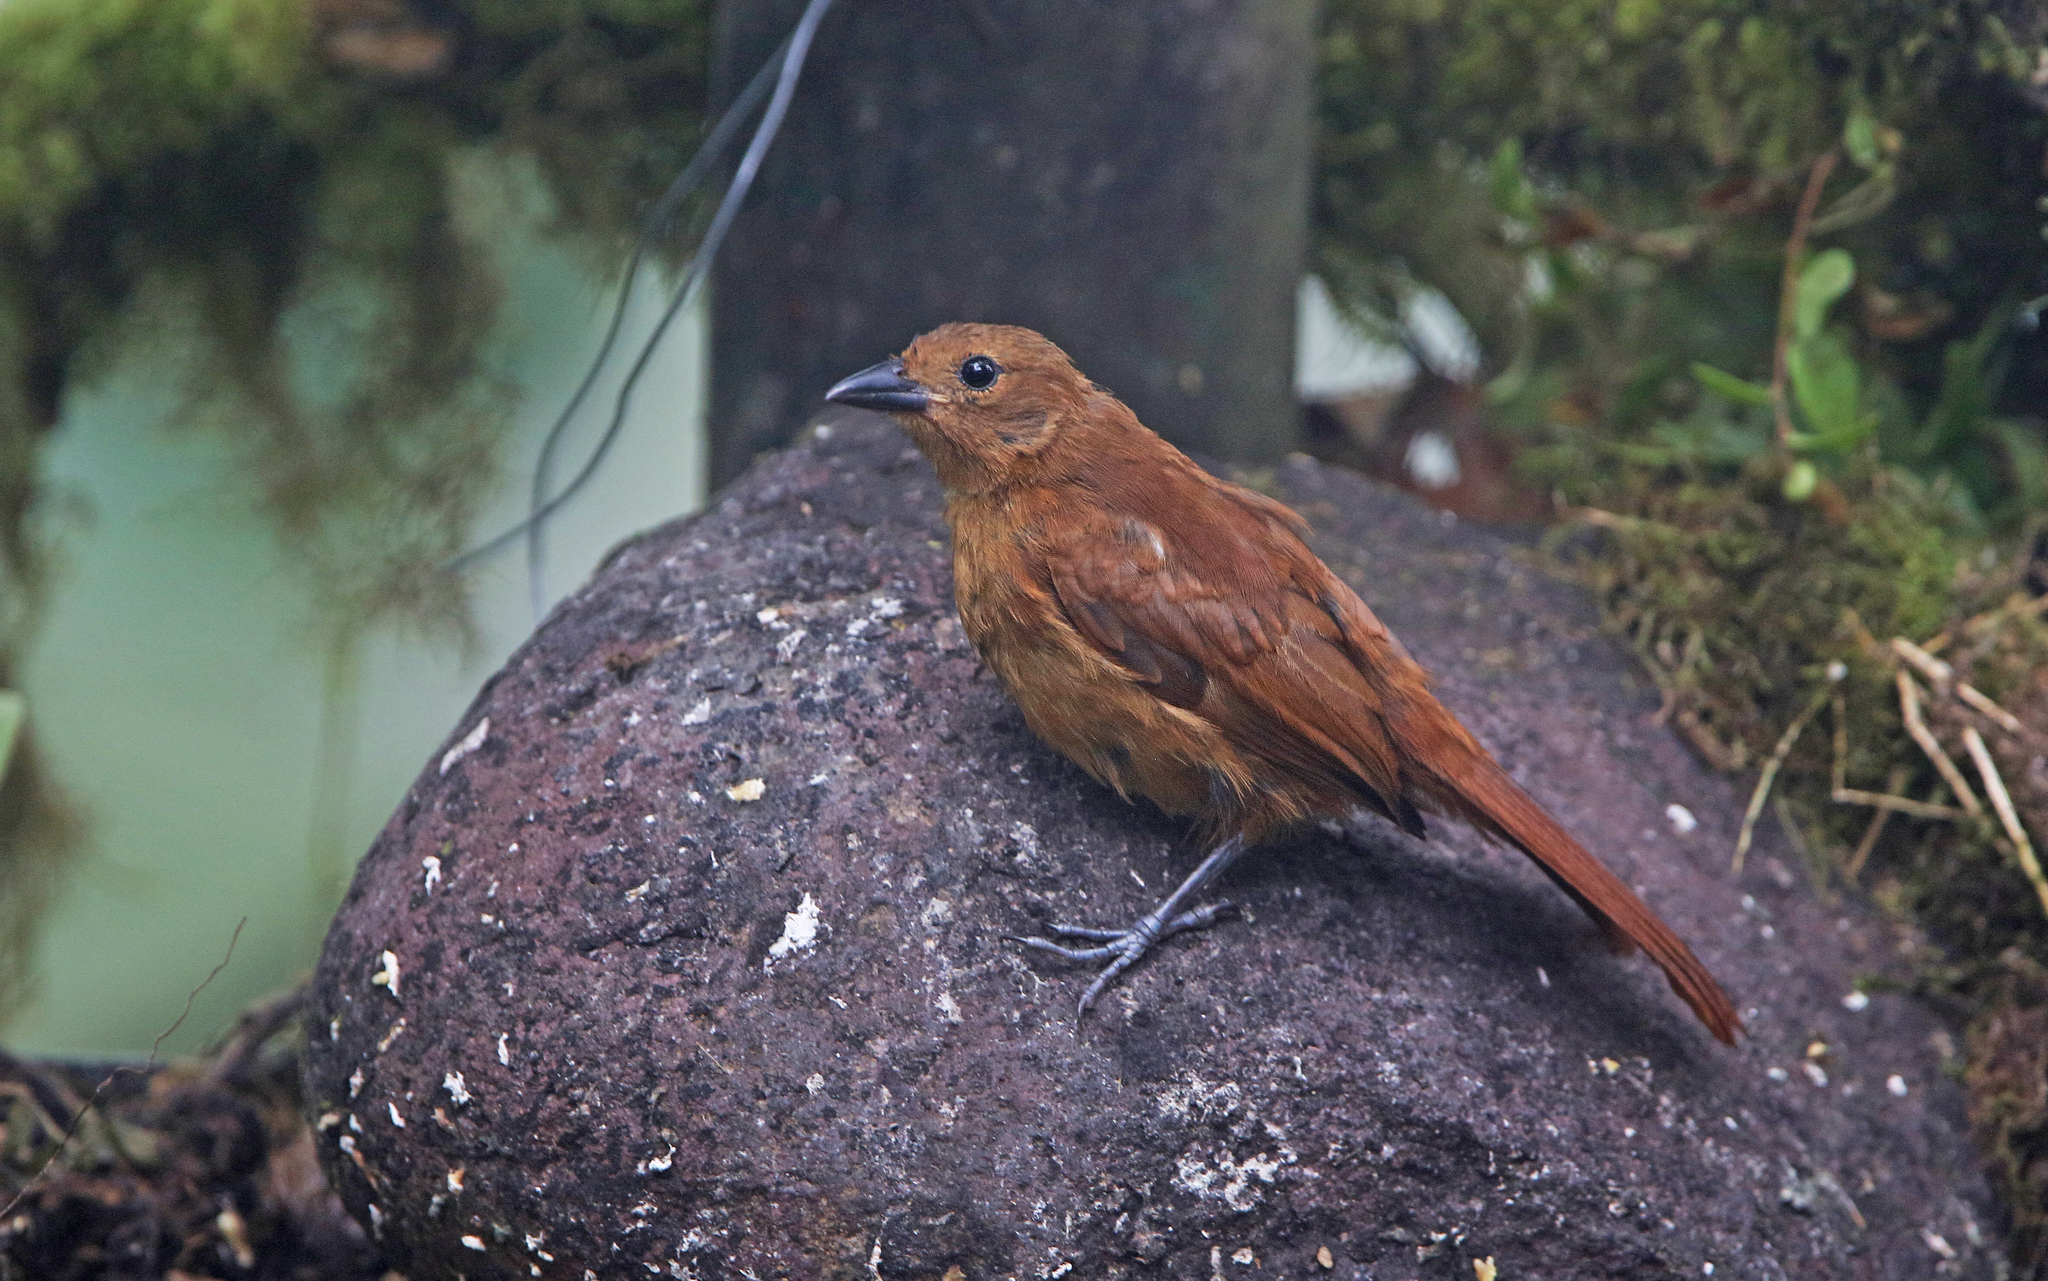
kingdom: Animalia
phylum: Chordata
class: Aves
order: Passeriformes
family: Thraupidae
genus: Tachyphonus
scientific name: Tachyphonus rufus
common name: White-lined tanager
